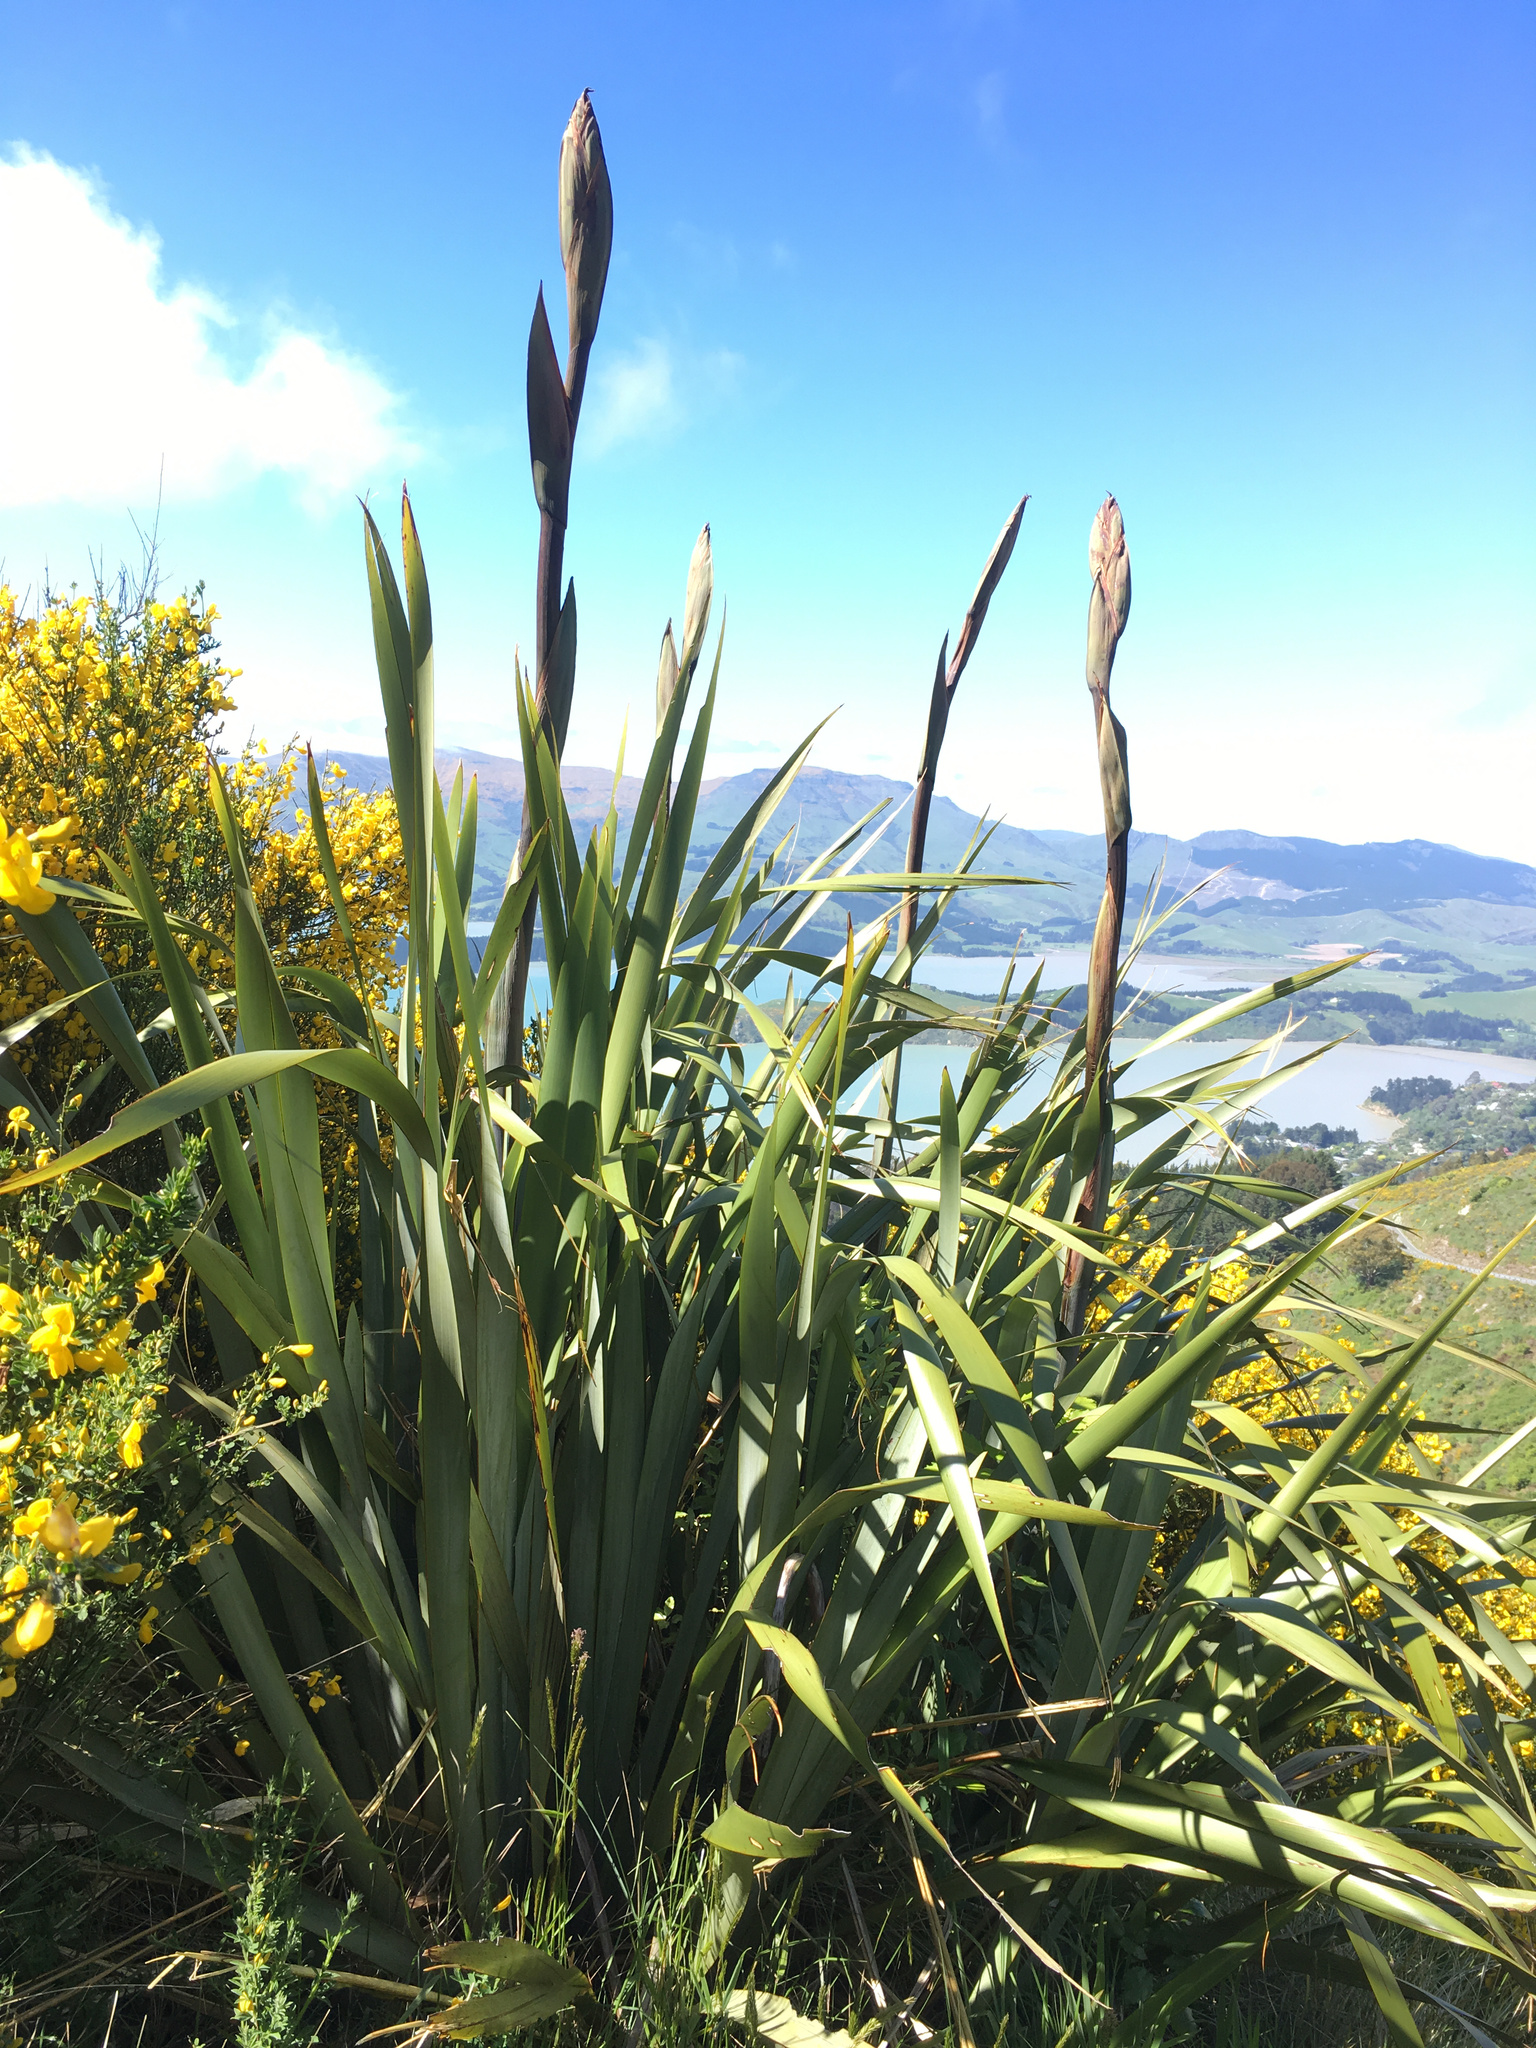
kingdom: Plantae
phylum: Tracheophyta
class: Liliopsida
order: Asparagales
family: Asphodelaceae
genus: Phormium
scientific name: Phormium tenax
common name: New zealand flax
